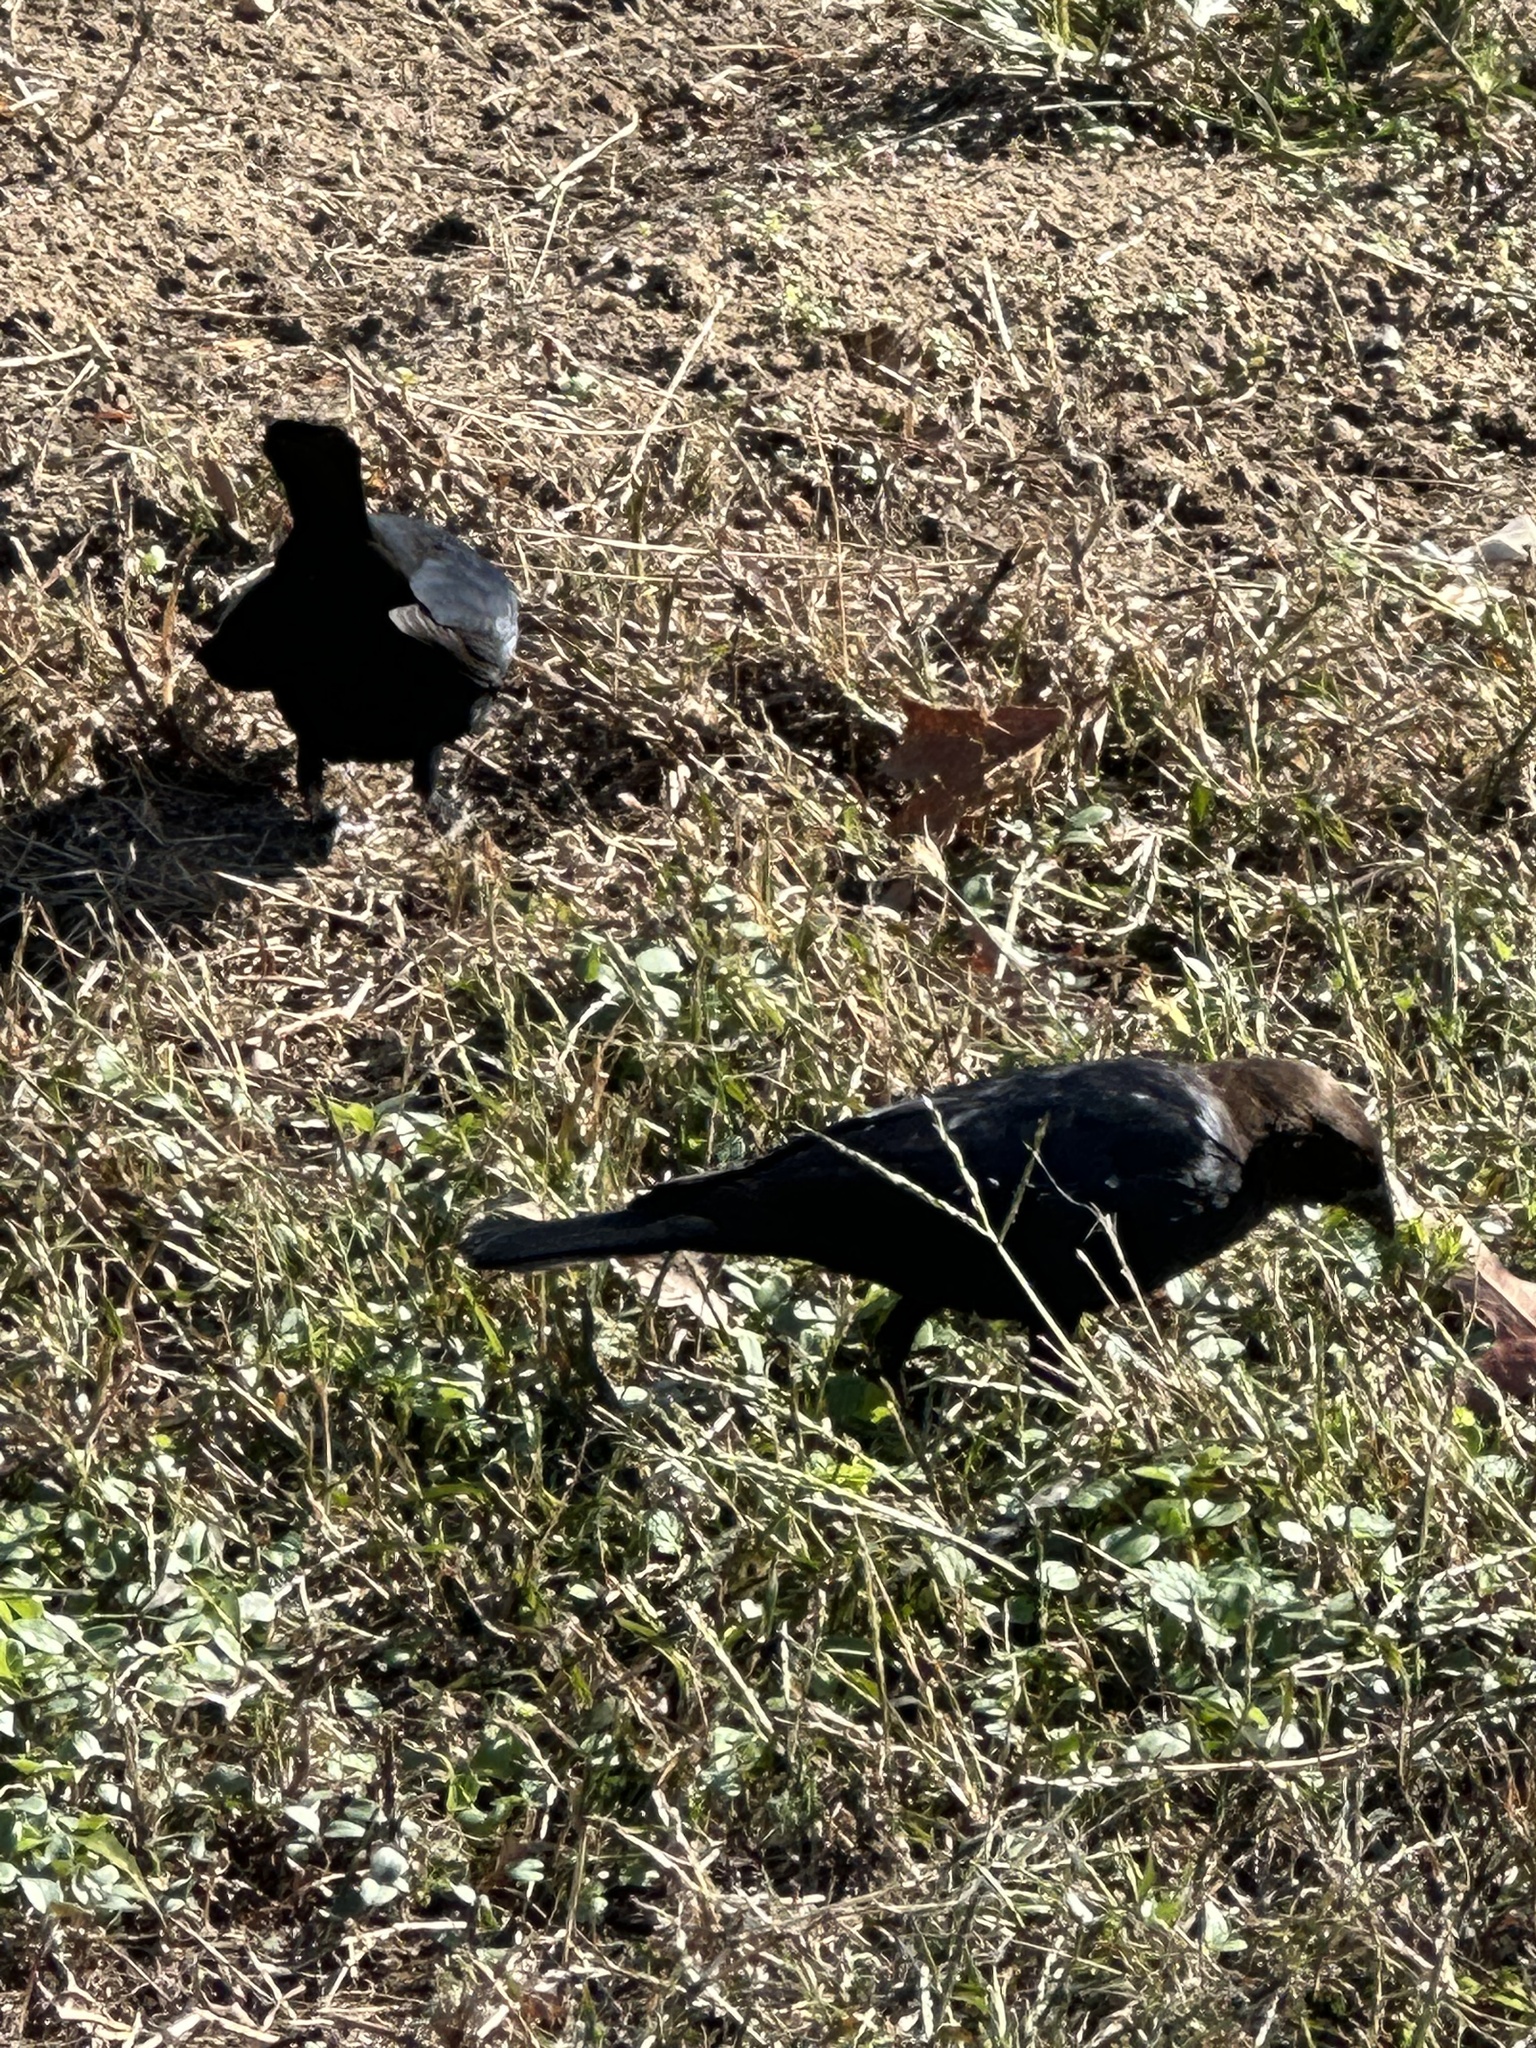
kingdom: Animalia
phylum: Chordata
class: Aves
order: Passeriformes
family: Icteridae
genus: Molothrus
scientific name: Molothrus ater
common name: Brown-headed cowbird
